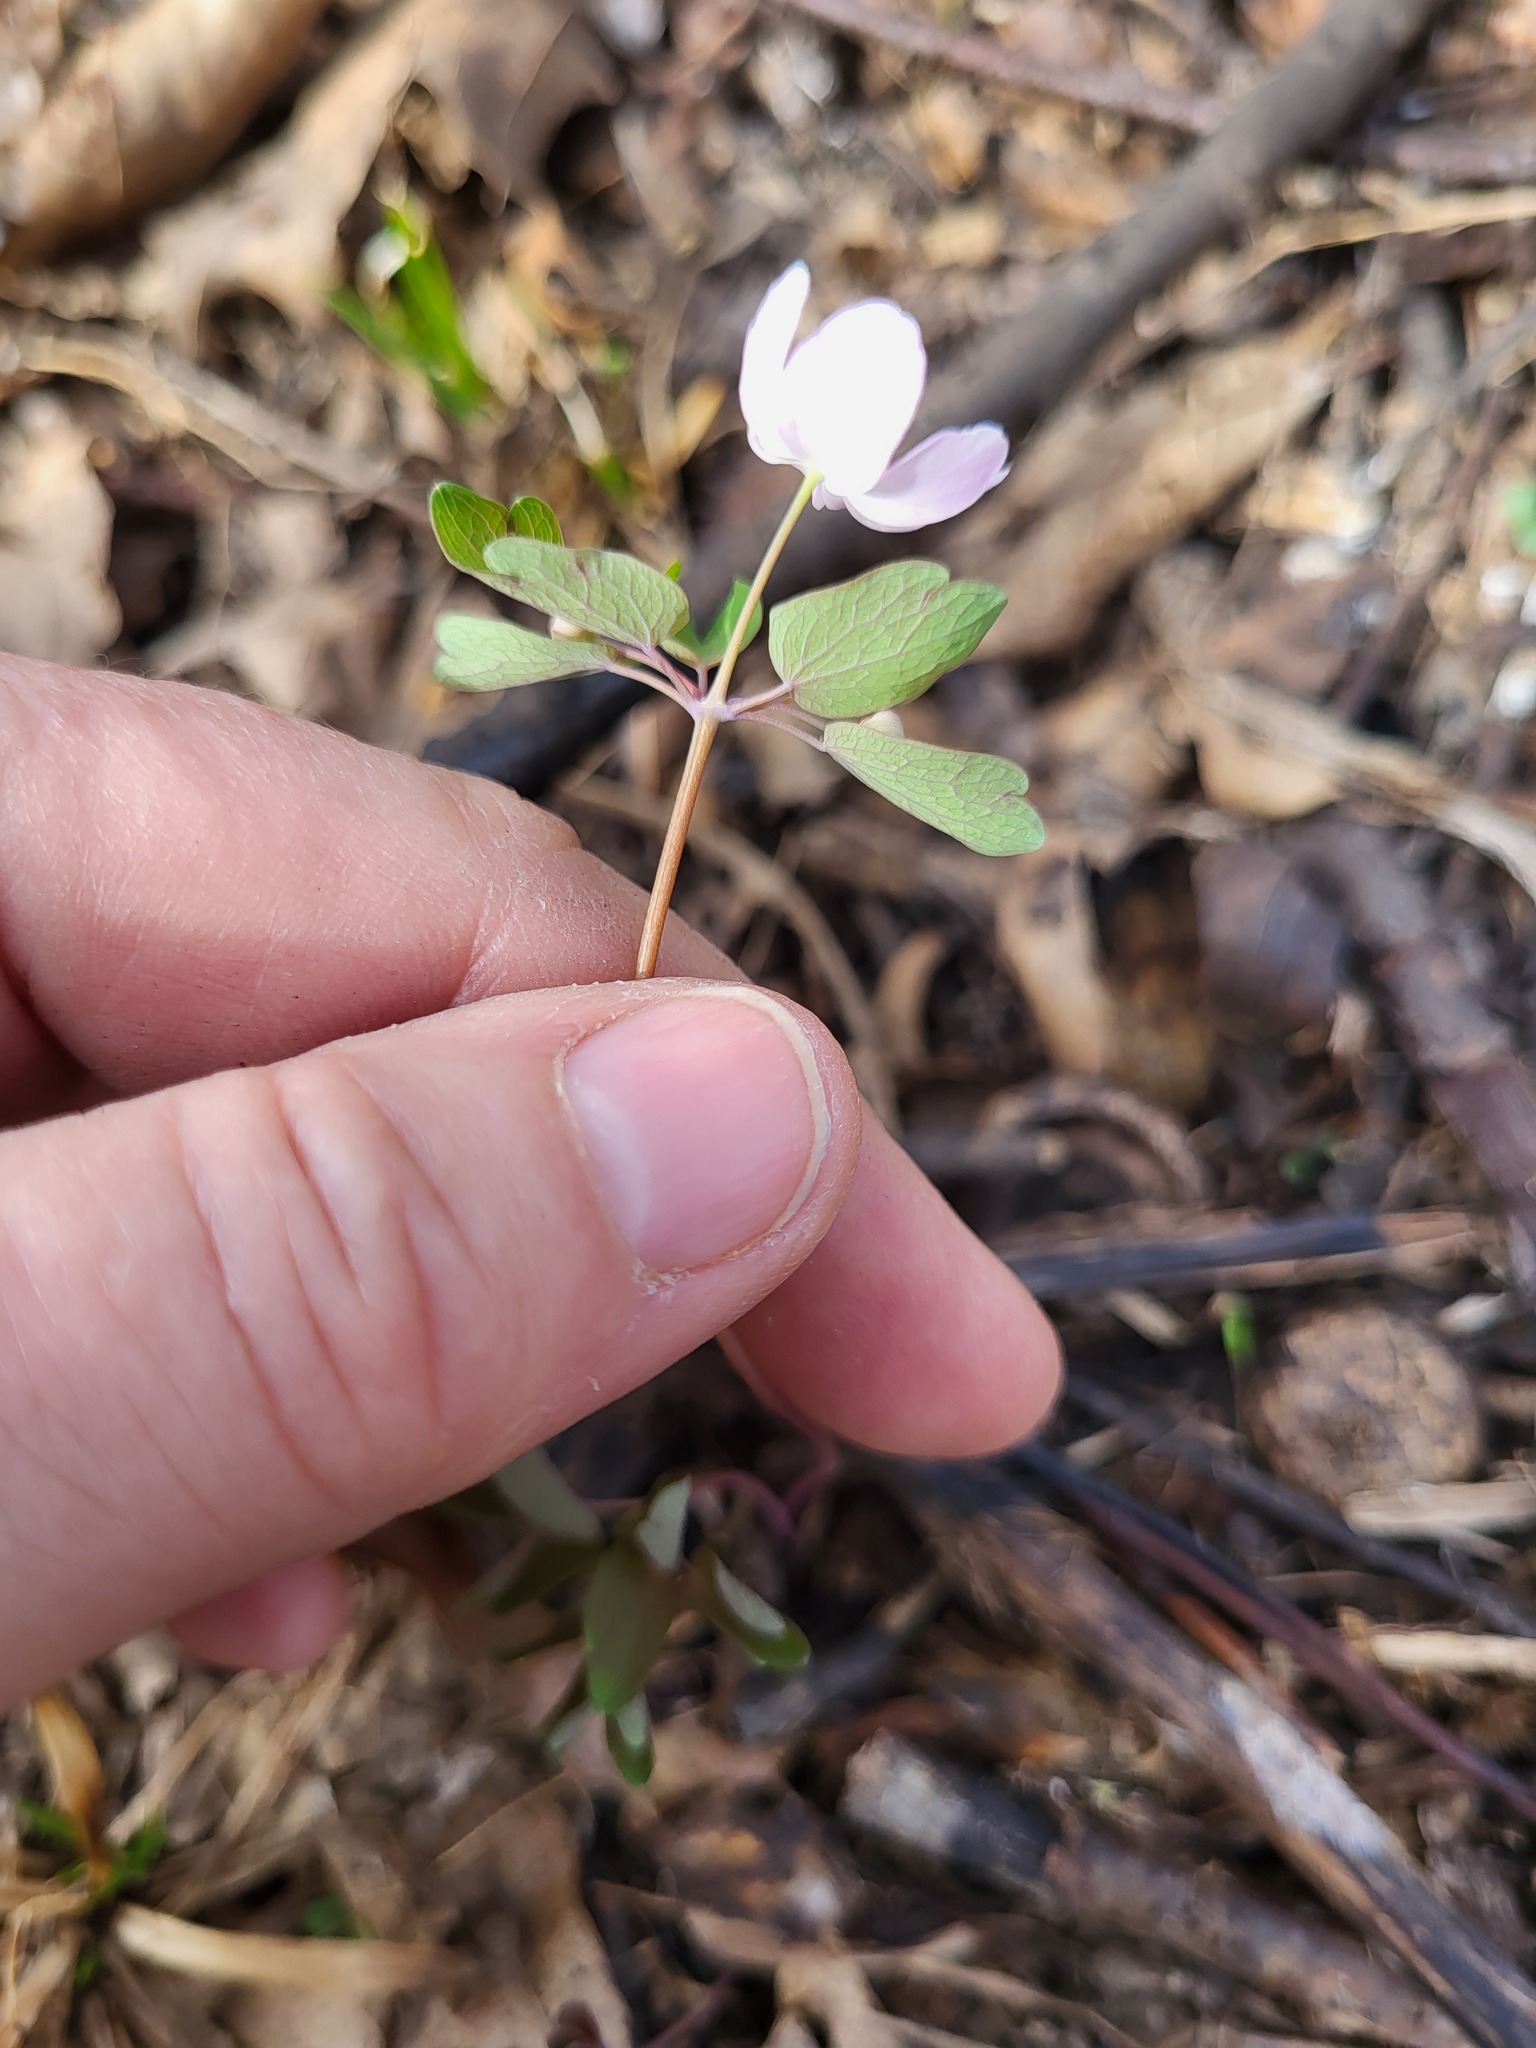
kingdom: Plantae
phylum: Tracheophyta
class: Magnoliopsida
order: Ranunculales
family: Ranunculaceae
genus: Thalictrum
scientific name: Thalictrum thalictroides
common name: Rue-anemone
